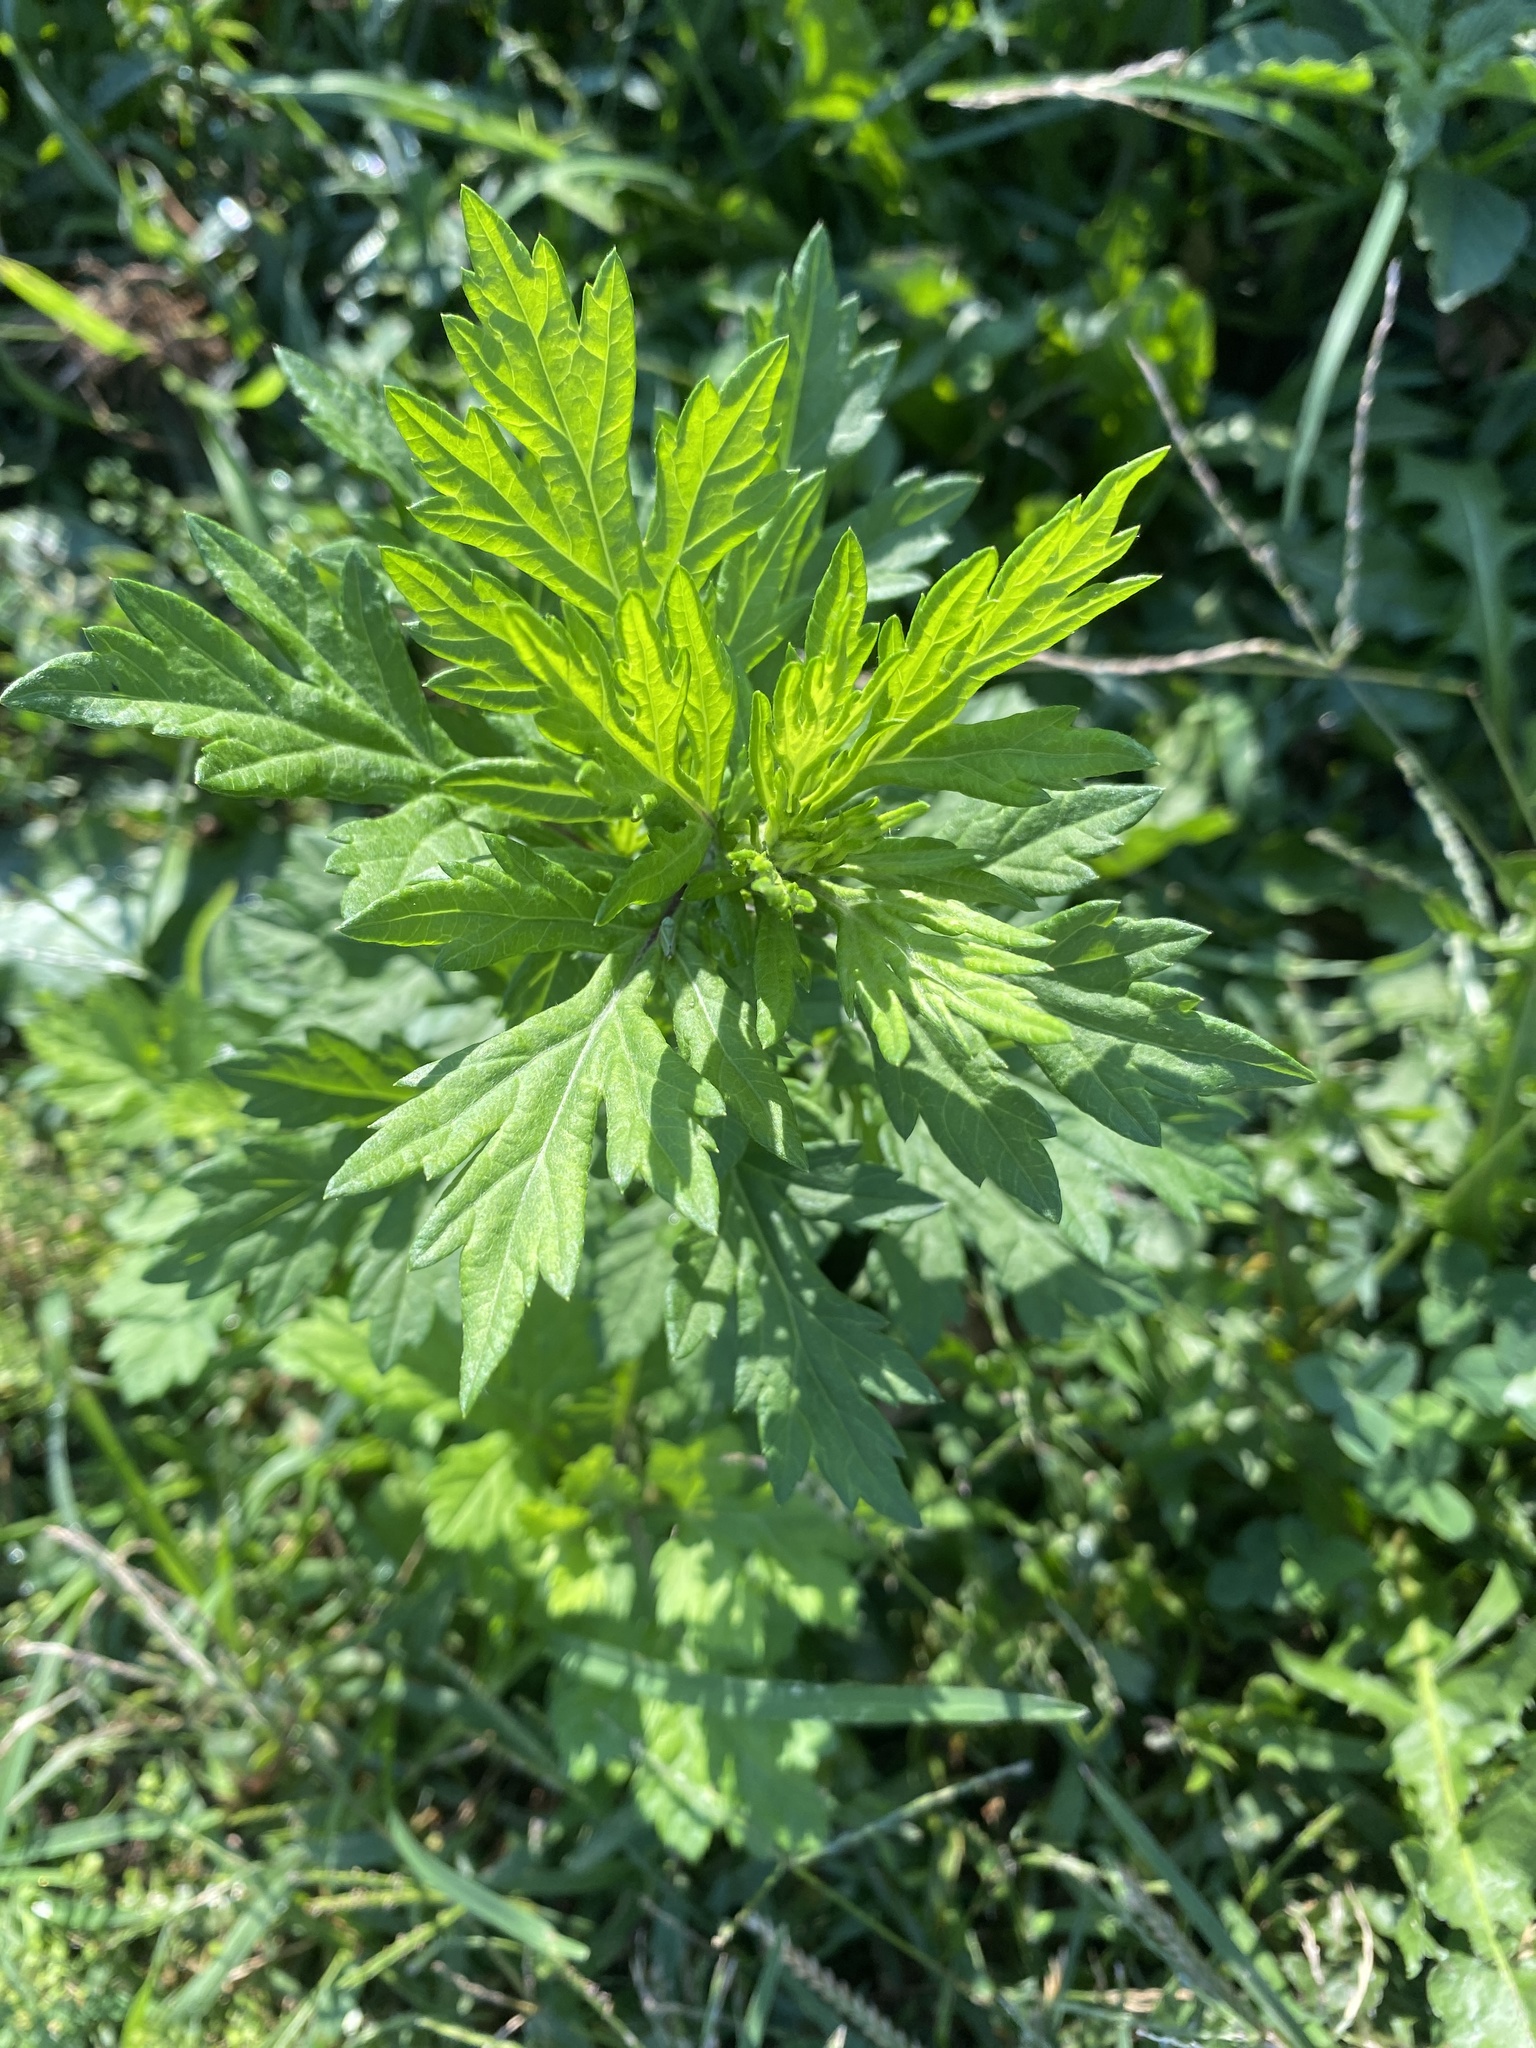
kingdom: Plantae
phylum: Tracheophyta
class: Magnoliopsida
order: Asterales
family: Asteraceae
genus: Artemisia
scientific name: Artemisia vulgaris
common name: Mugwort
